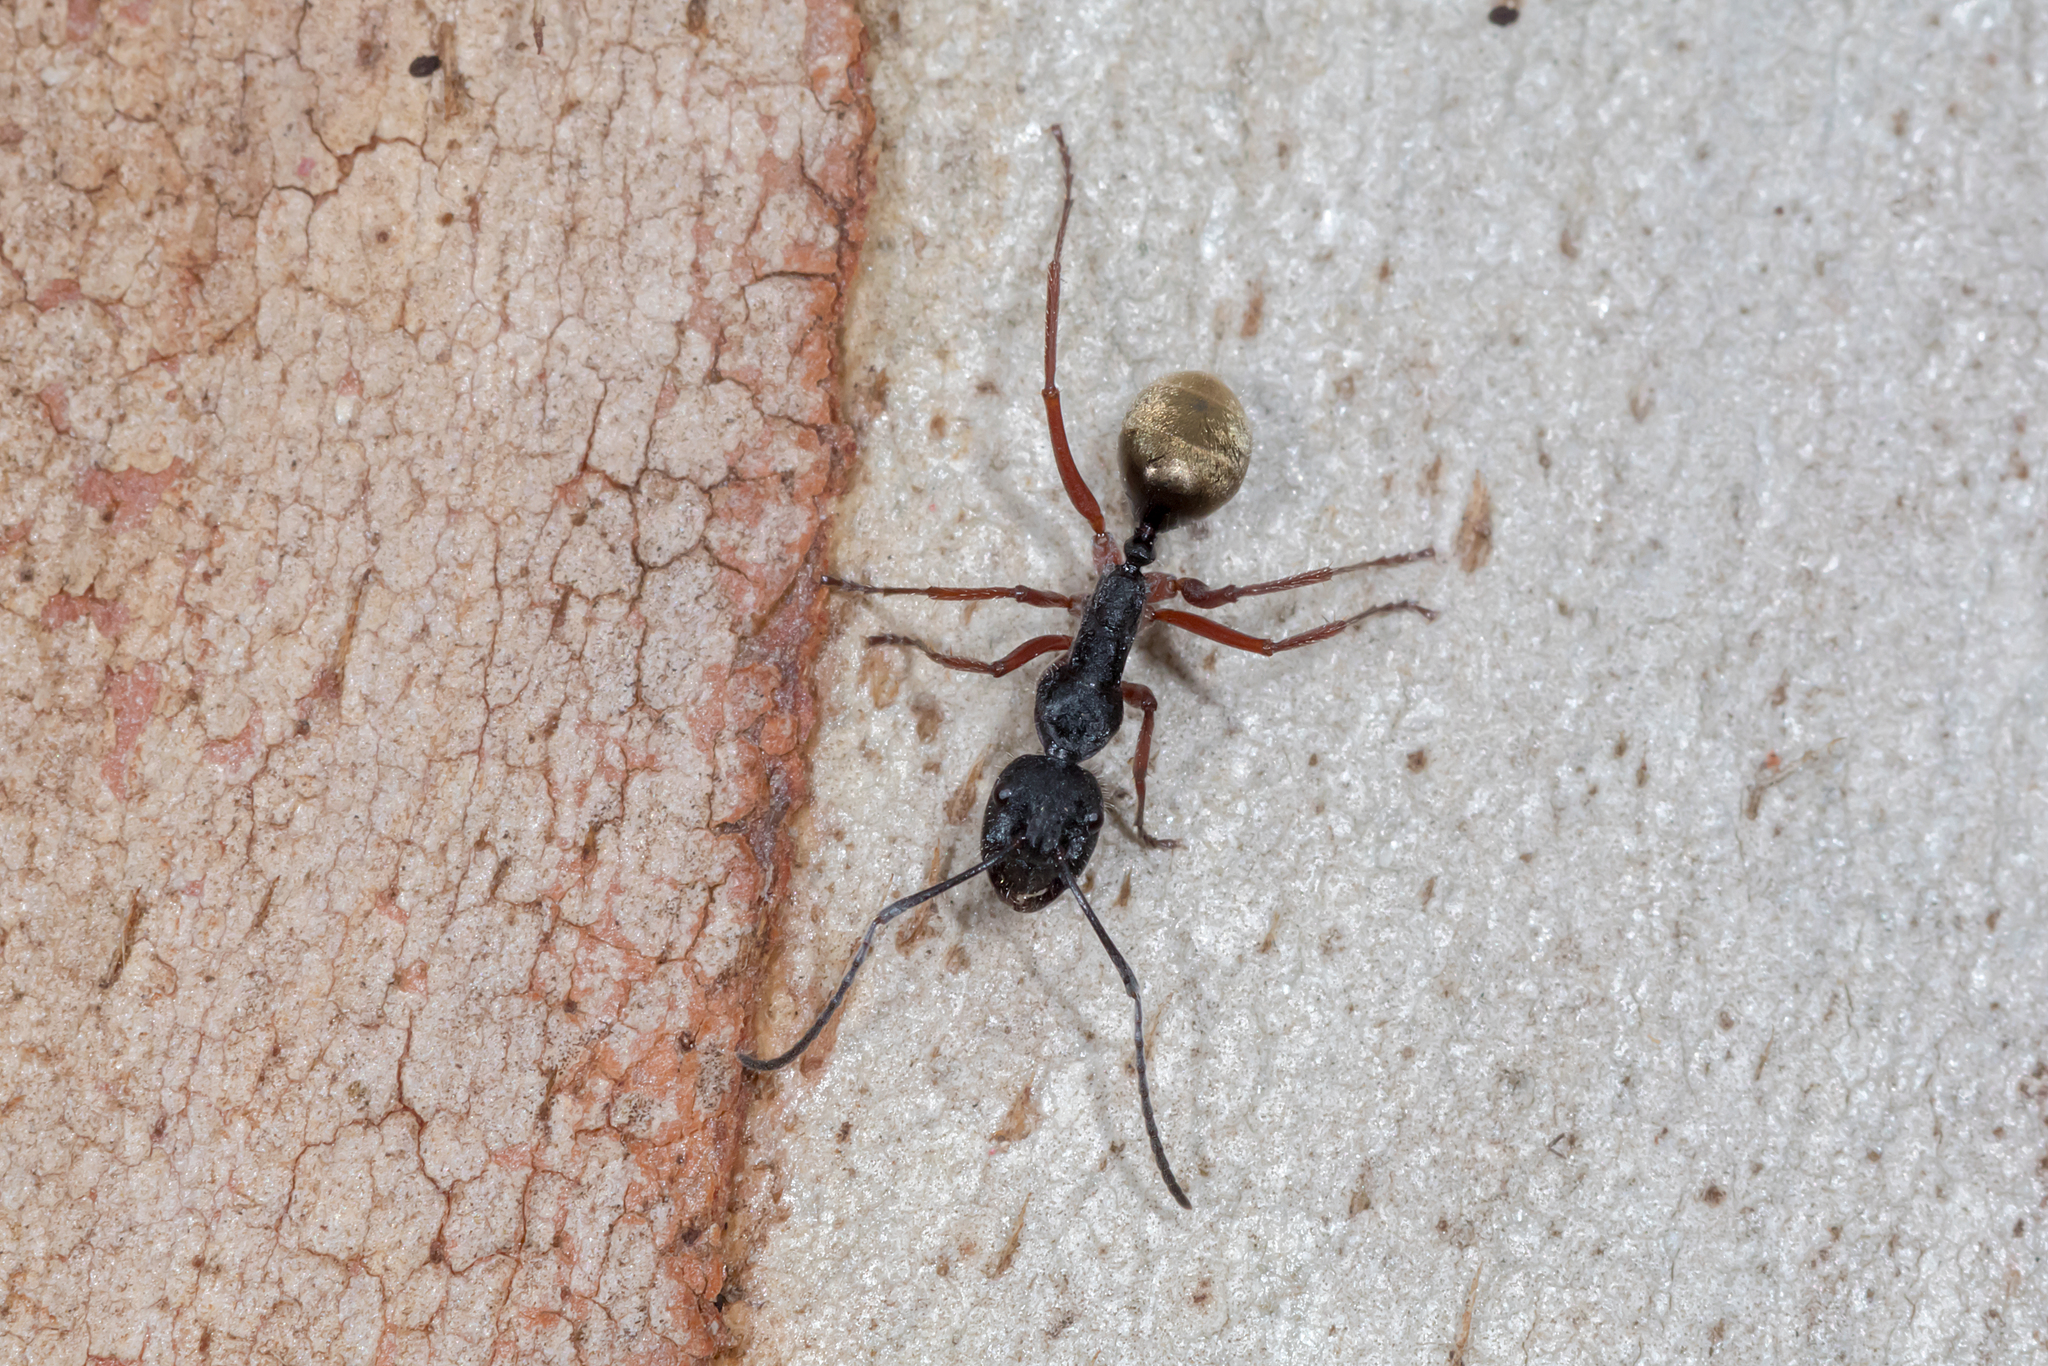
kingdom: Animalia
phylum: Arthropoda
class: Insecta
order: Hymenoptera
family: Formicidae
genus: Camponotus
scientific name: Camponotus suffusus
